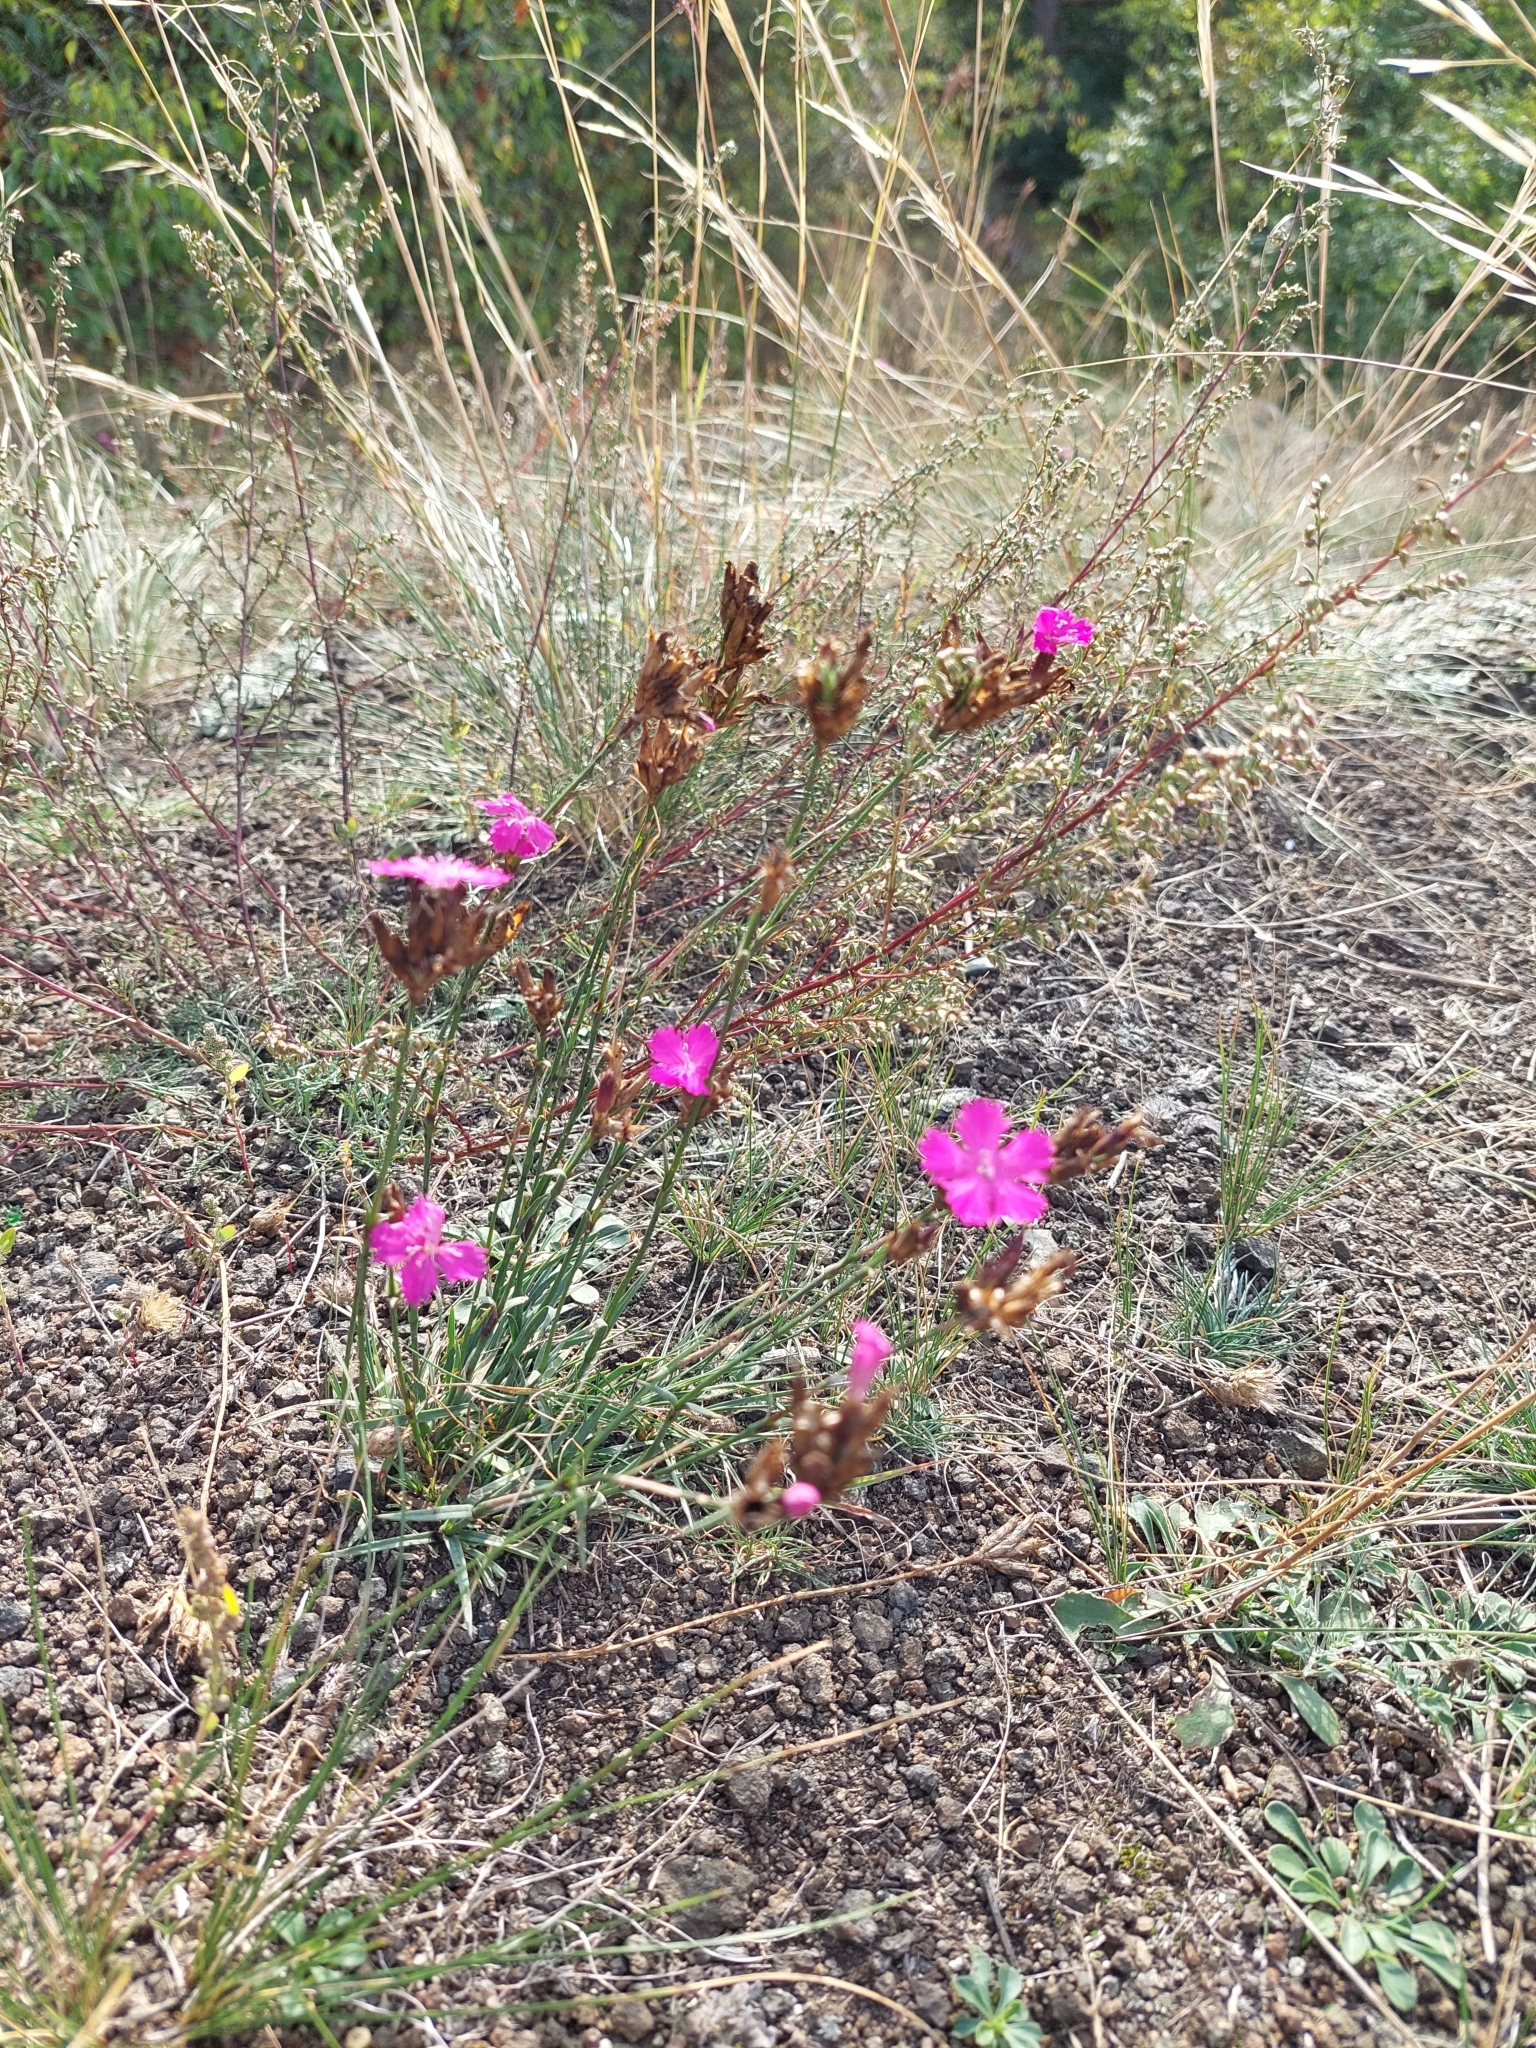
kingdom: Plantae
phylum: Tracheophyta
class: Magnoliopsida
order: Caryophyllales
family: Caryophyllaceae
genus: Dianthus
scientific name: Dianthus carthusianorum
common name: Carthusian pink
